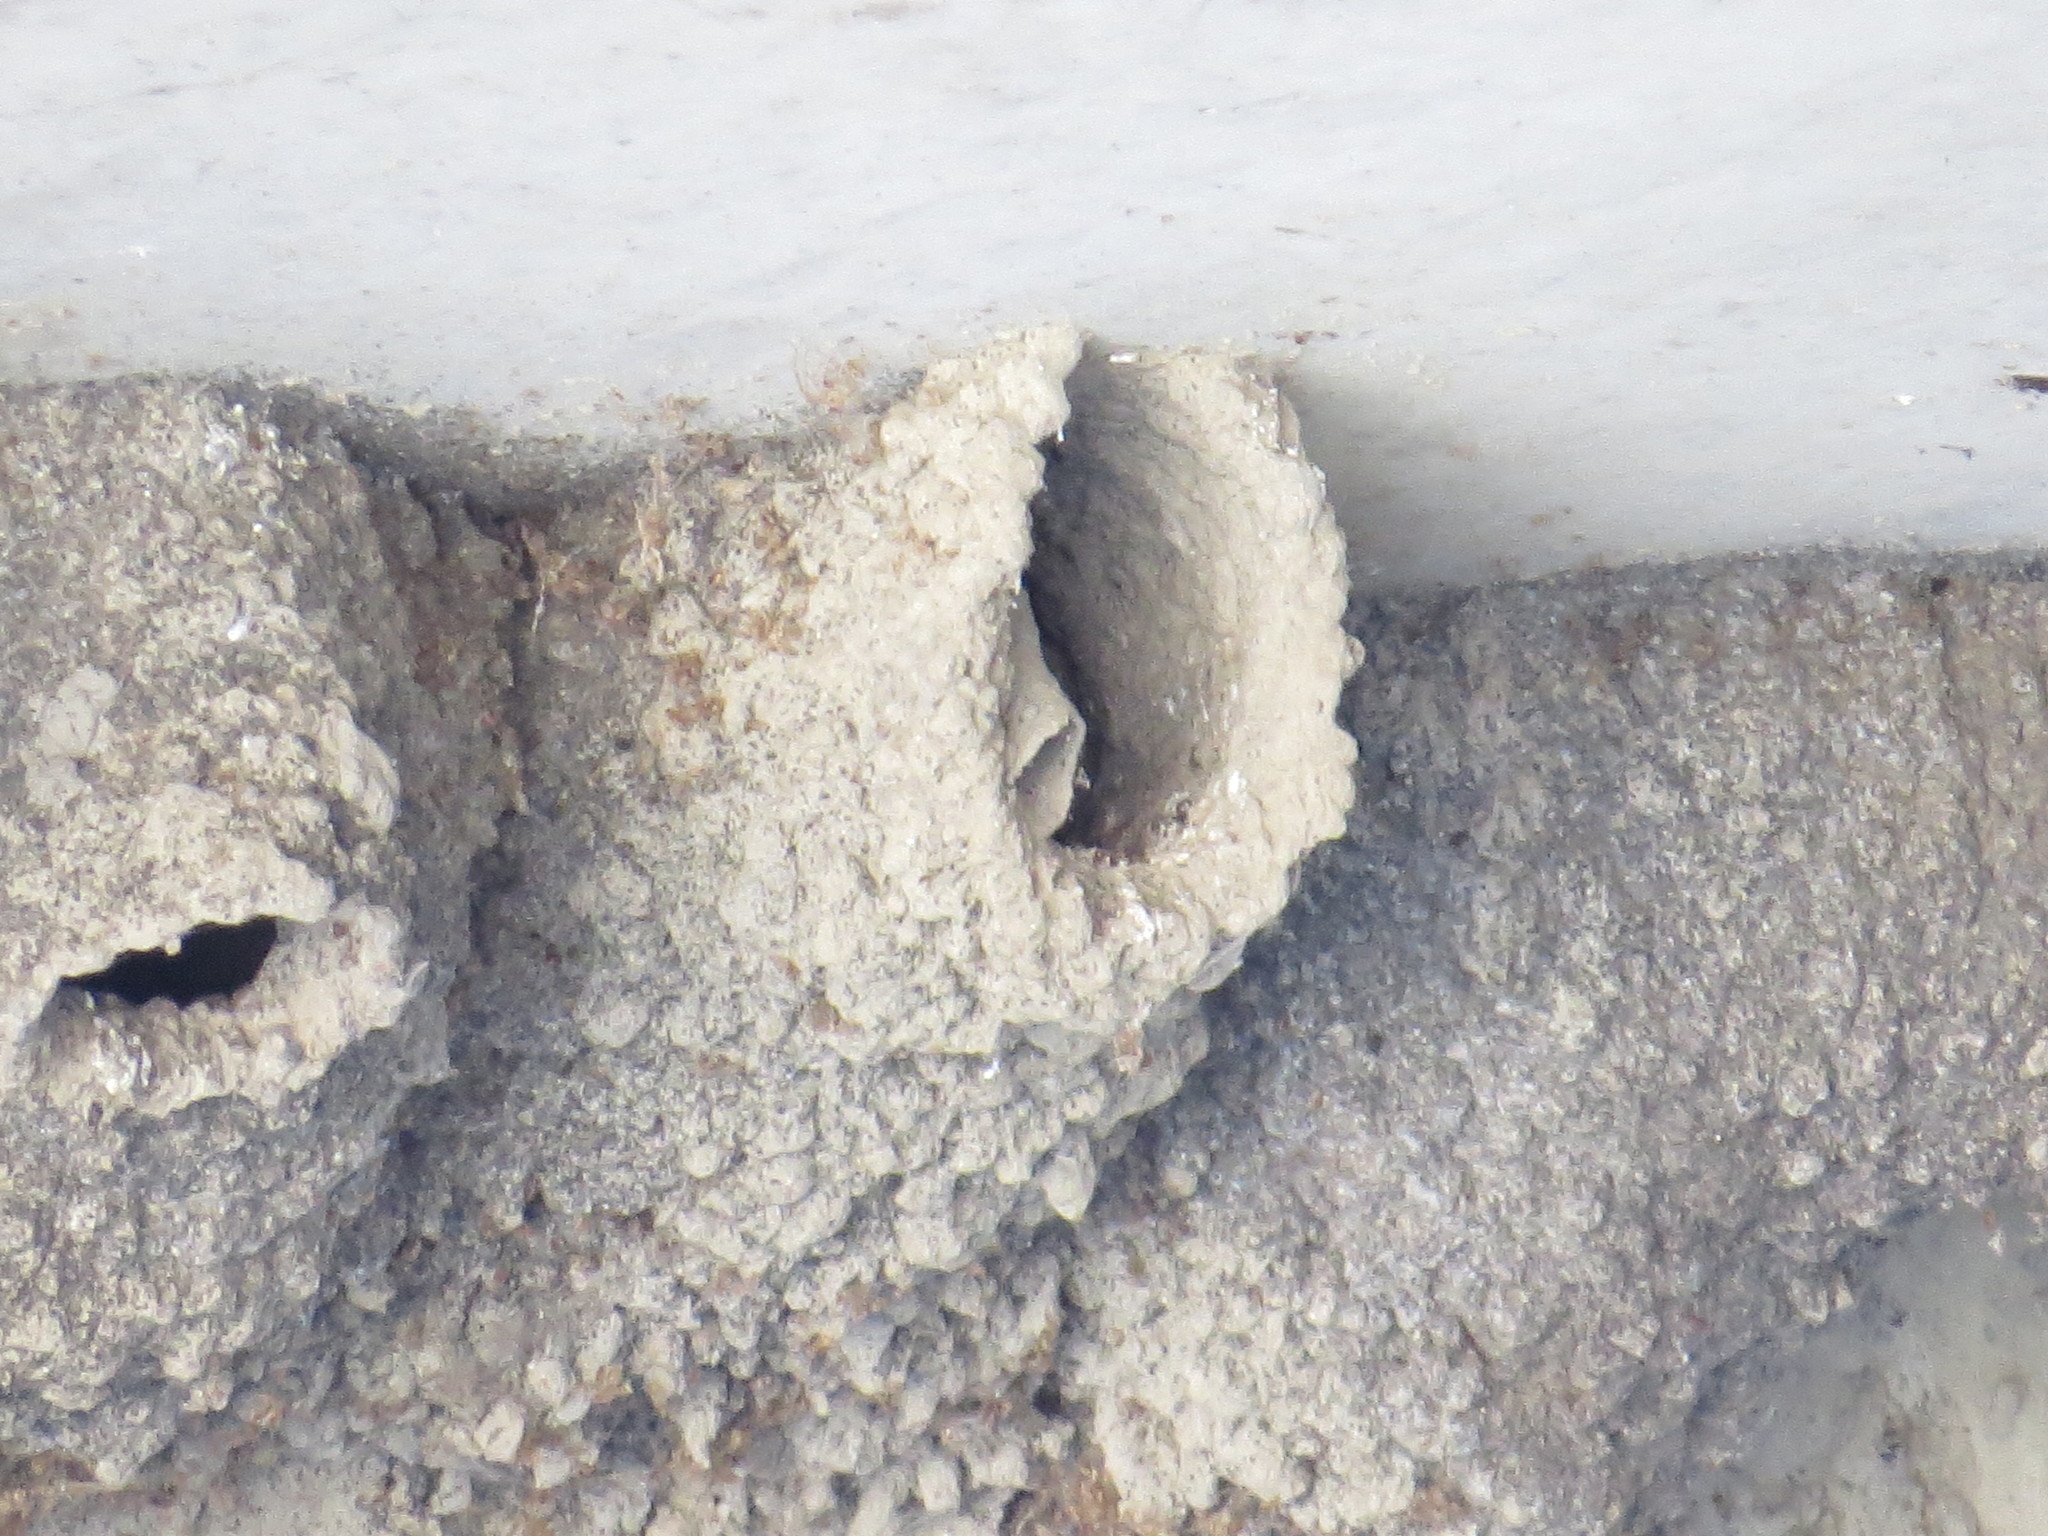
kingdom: Animalia
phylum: Chordata
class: Aves
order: Passeriformes
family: Hirundinidae
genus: Petrochelidon
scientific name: Petrochelidon pyrrhonota
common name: American cliff swallow
